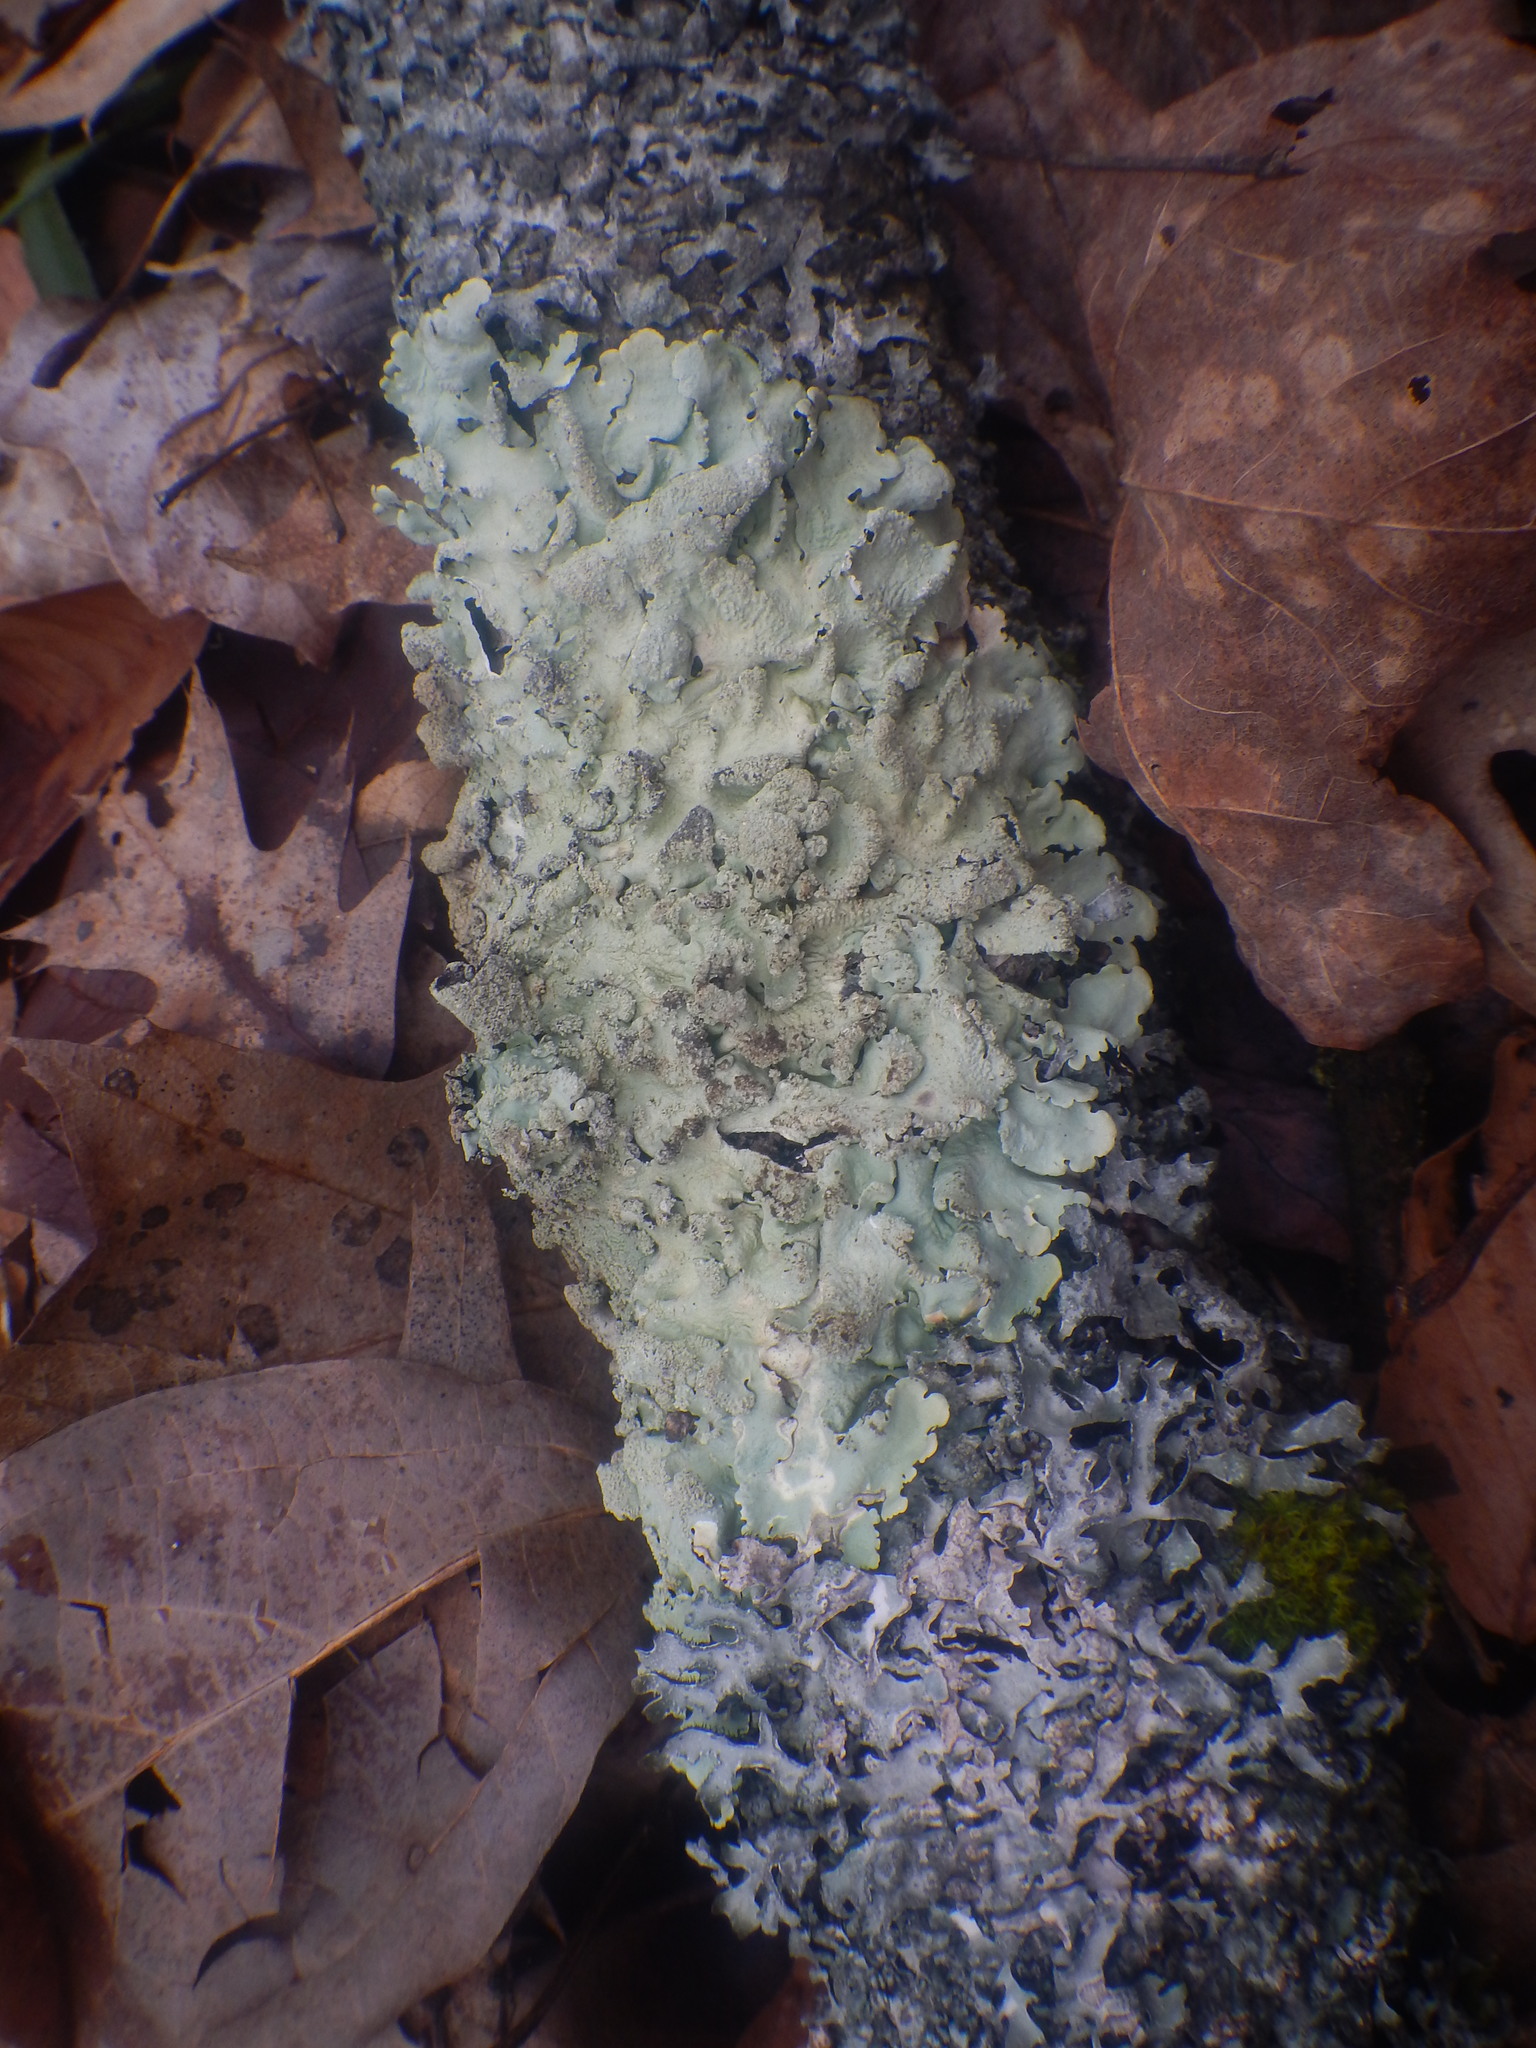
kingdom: Fungi
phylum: Ascomycota
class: Lecanoromycetes
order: Lecanorales
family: Parmeliaceae
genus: Flavoparmelia
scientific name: Flavoparmelia caperata
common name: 40-mile per hour lichen
